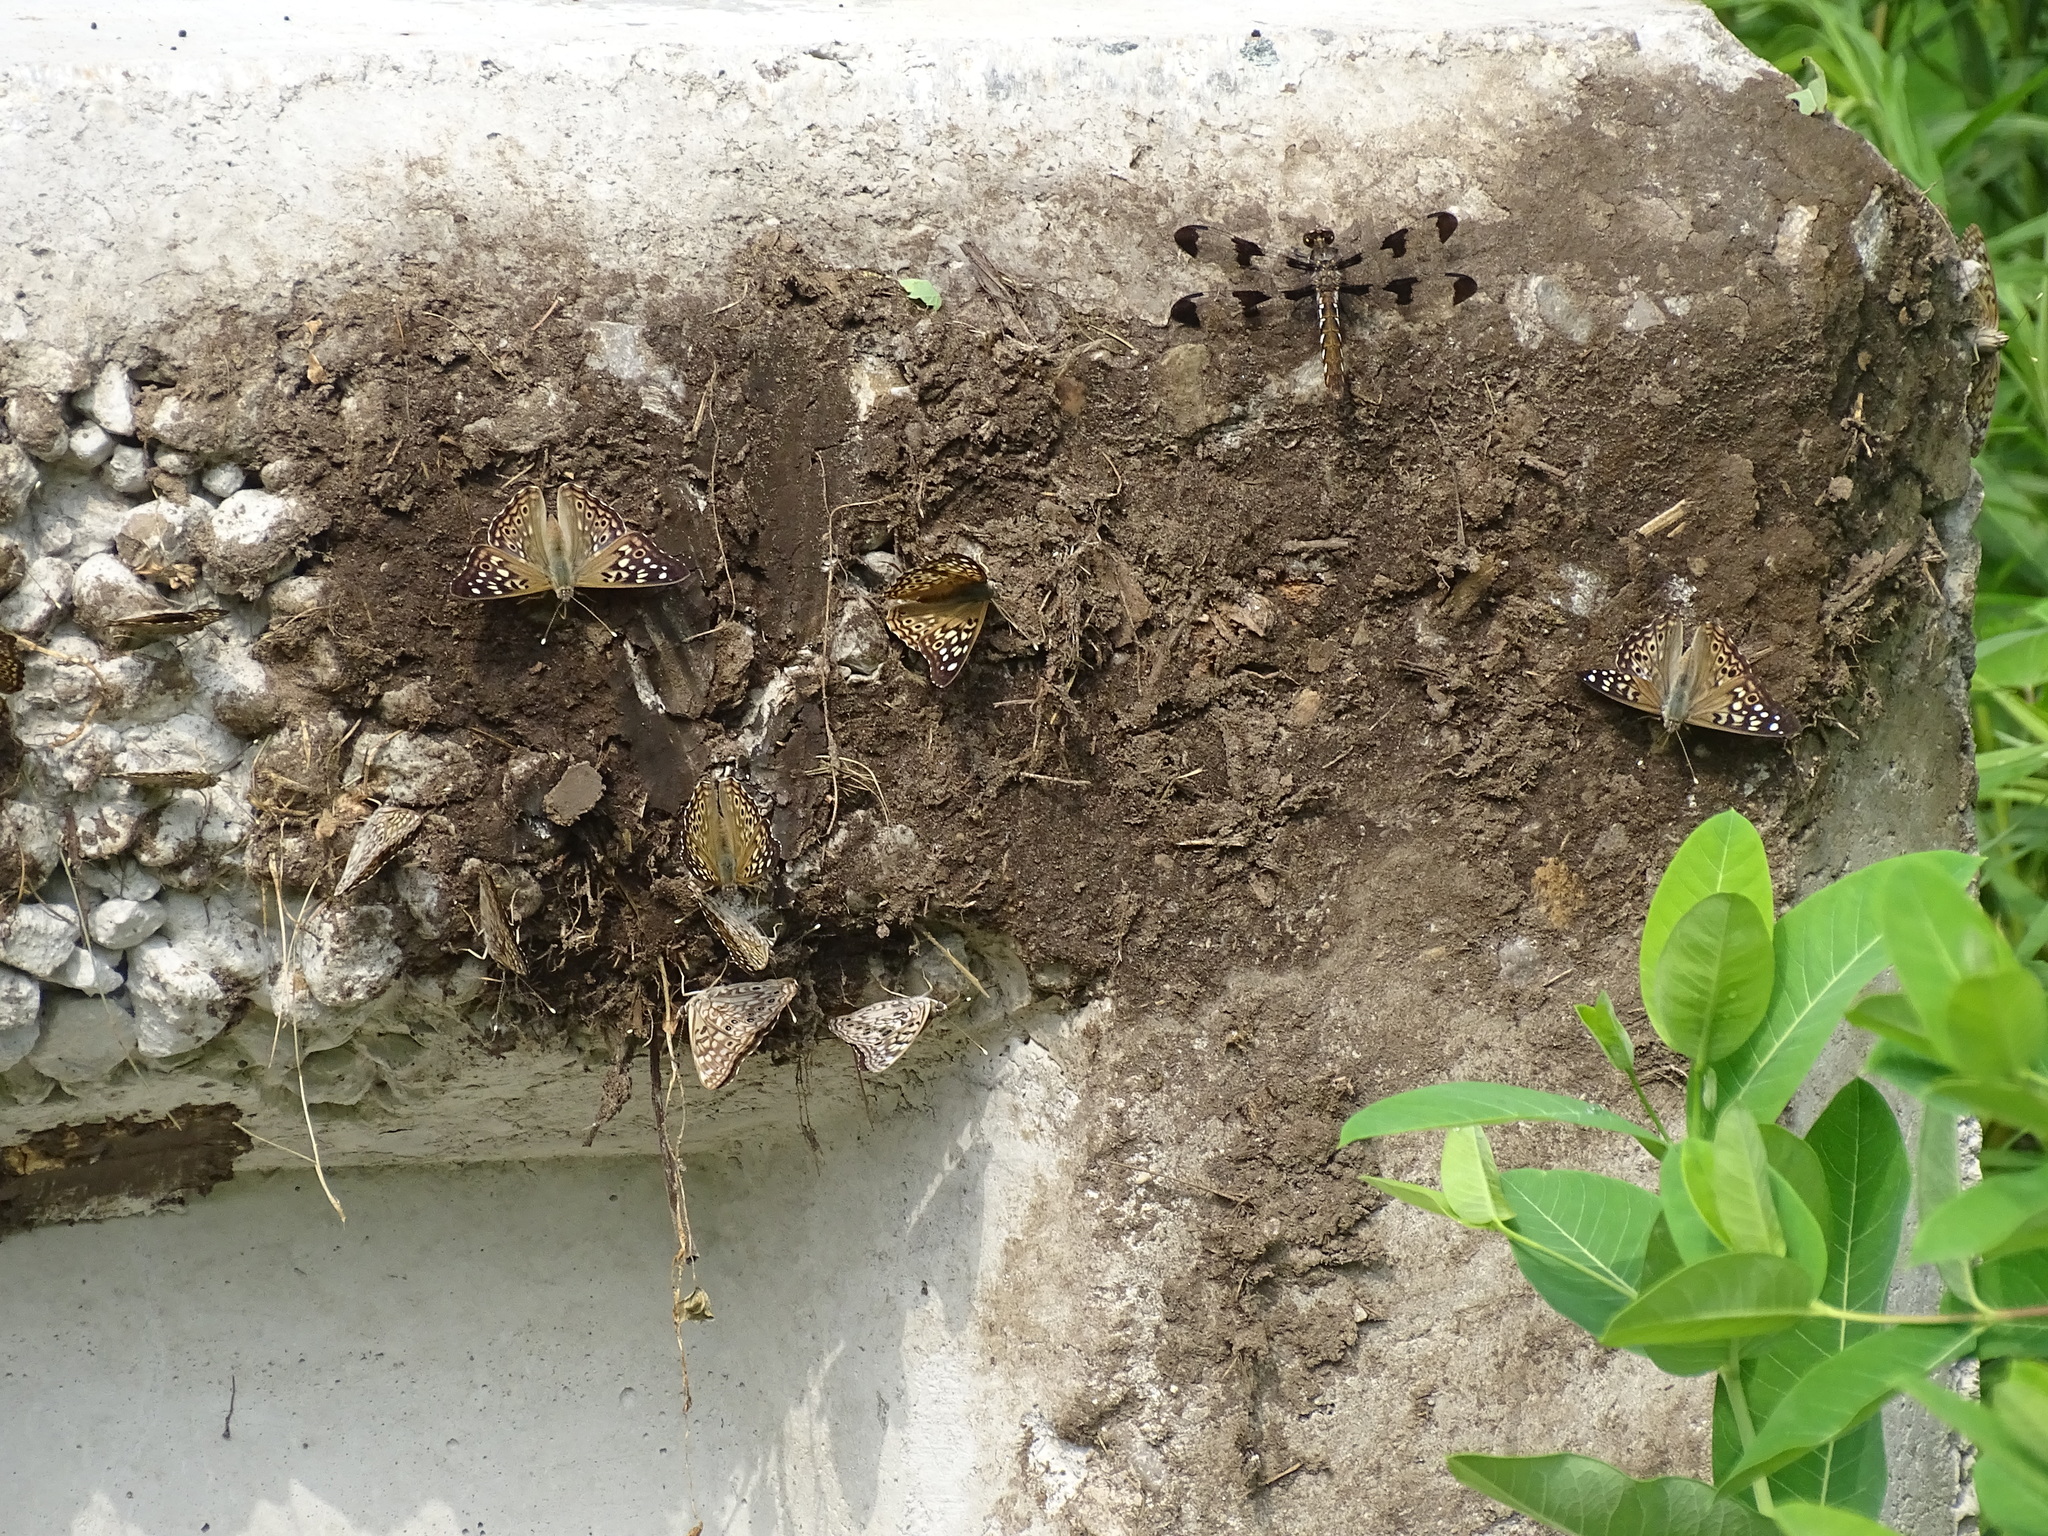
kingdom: Animalia
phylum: Arthropoda
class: Insecta
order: Lepidoptera
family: Nymphalidae
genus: Asterocampa
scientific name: Asterocampa celtis
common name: Hackberry emperor
